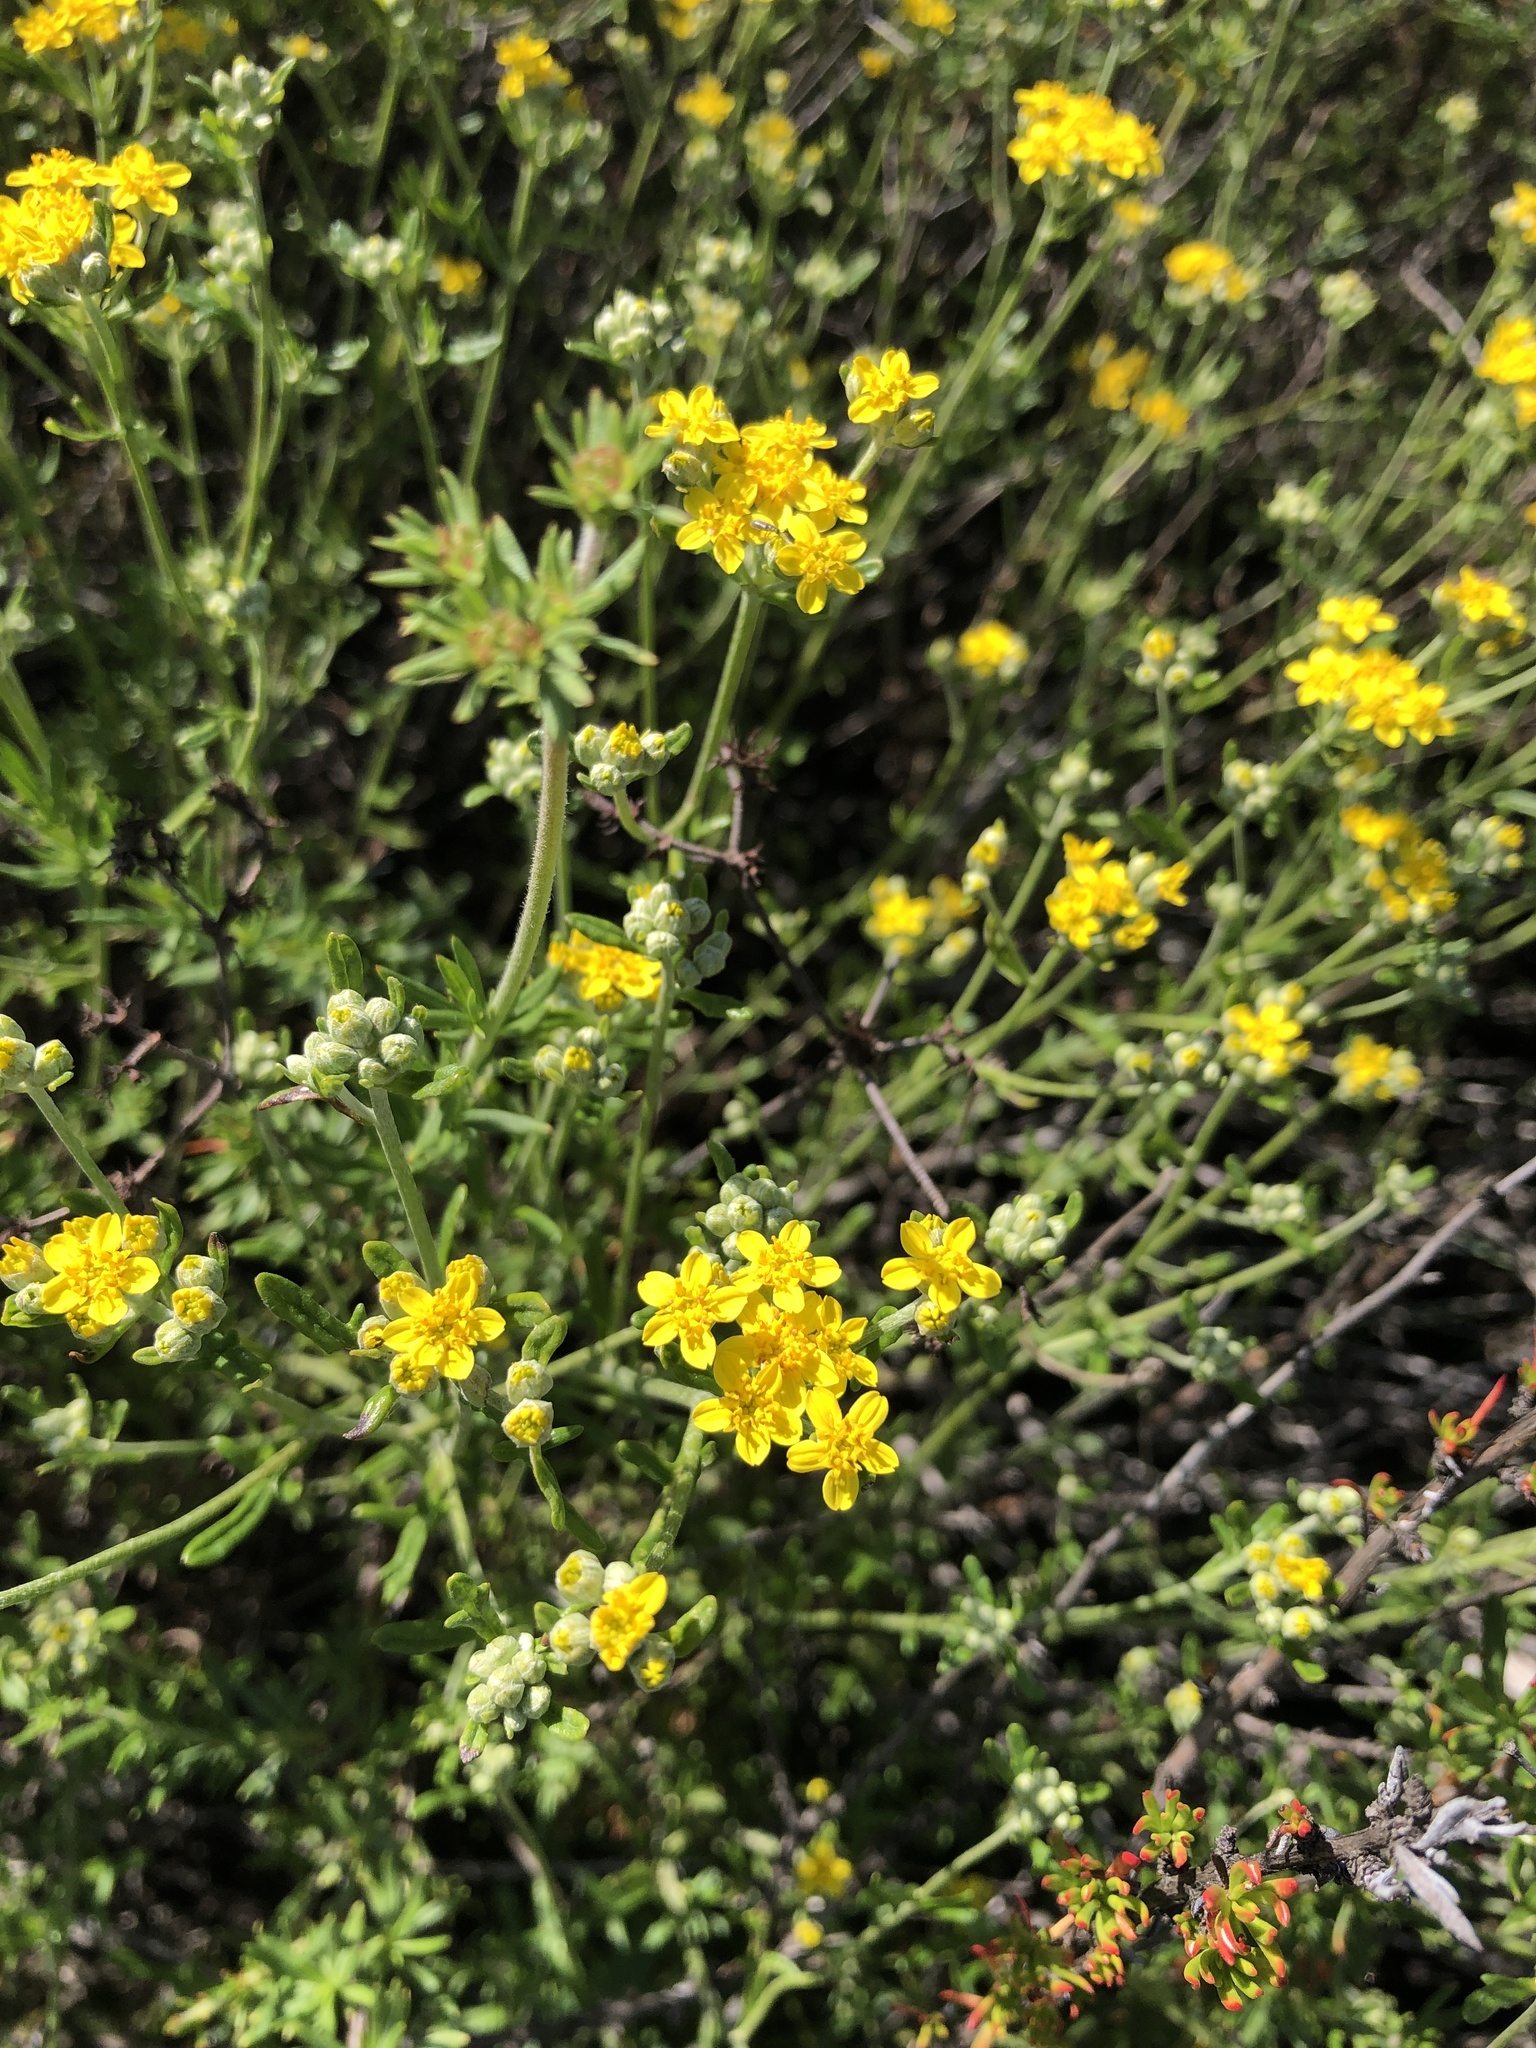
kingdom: Plantae
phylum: Tracheophyta
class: Magnoliopsida
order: Asterales
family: Asteraceae
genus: Eriophyllum
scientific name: Eriophyllum confertiflorum
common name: Golden-yarrow
